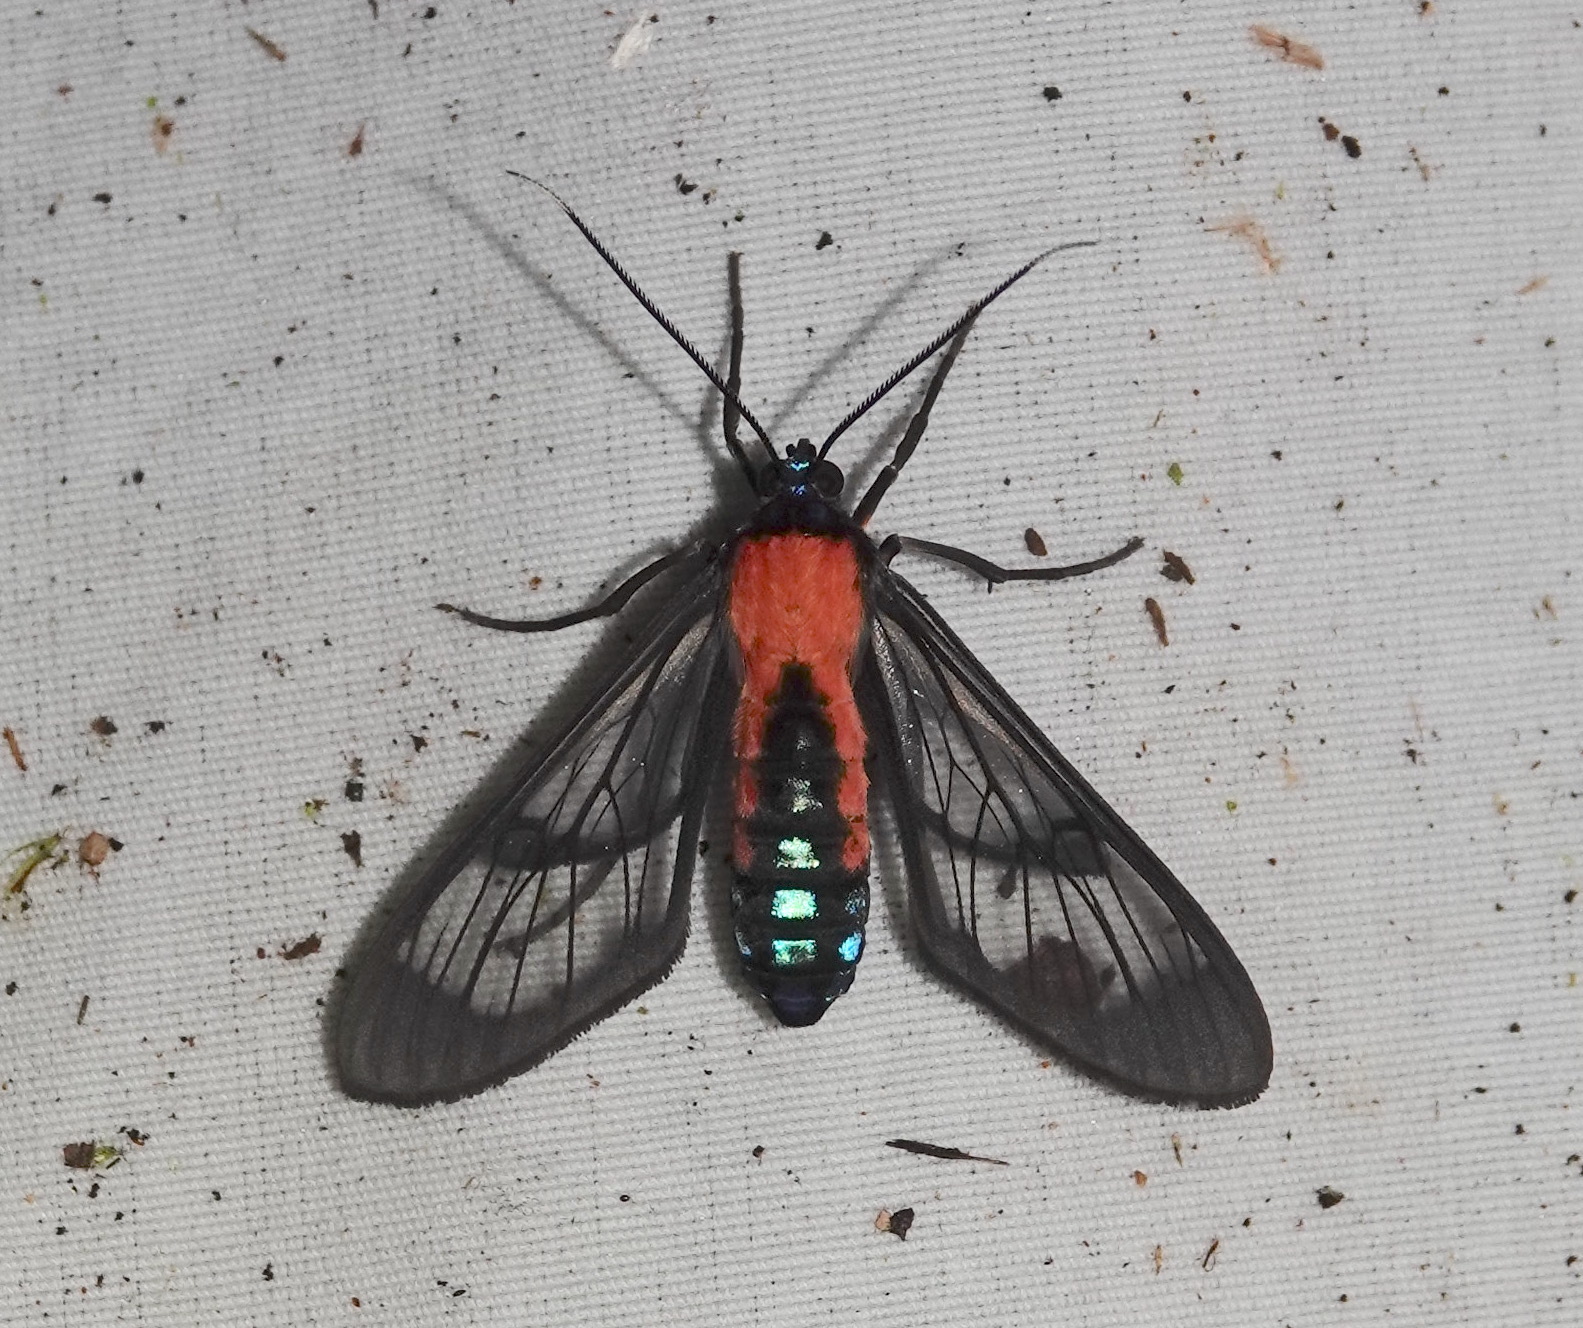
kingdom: Animalia
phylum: Arthropoda
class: Insecta
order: Lepidoptera
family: Erebidae
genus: Cosmosoma
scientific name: Cosmosoma oroyana
